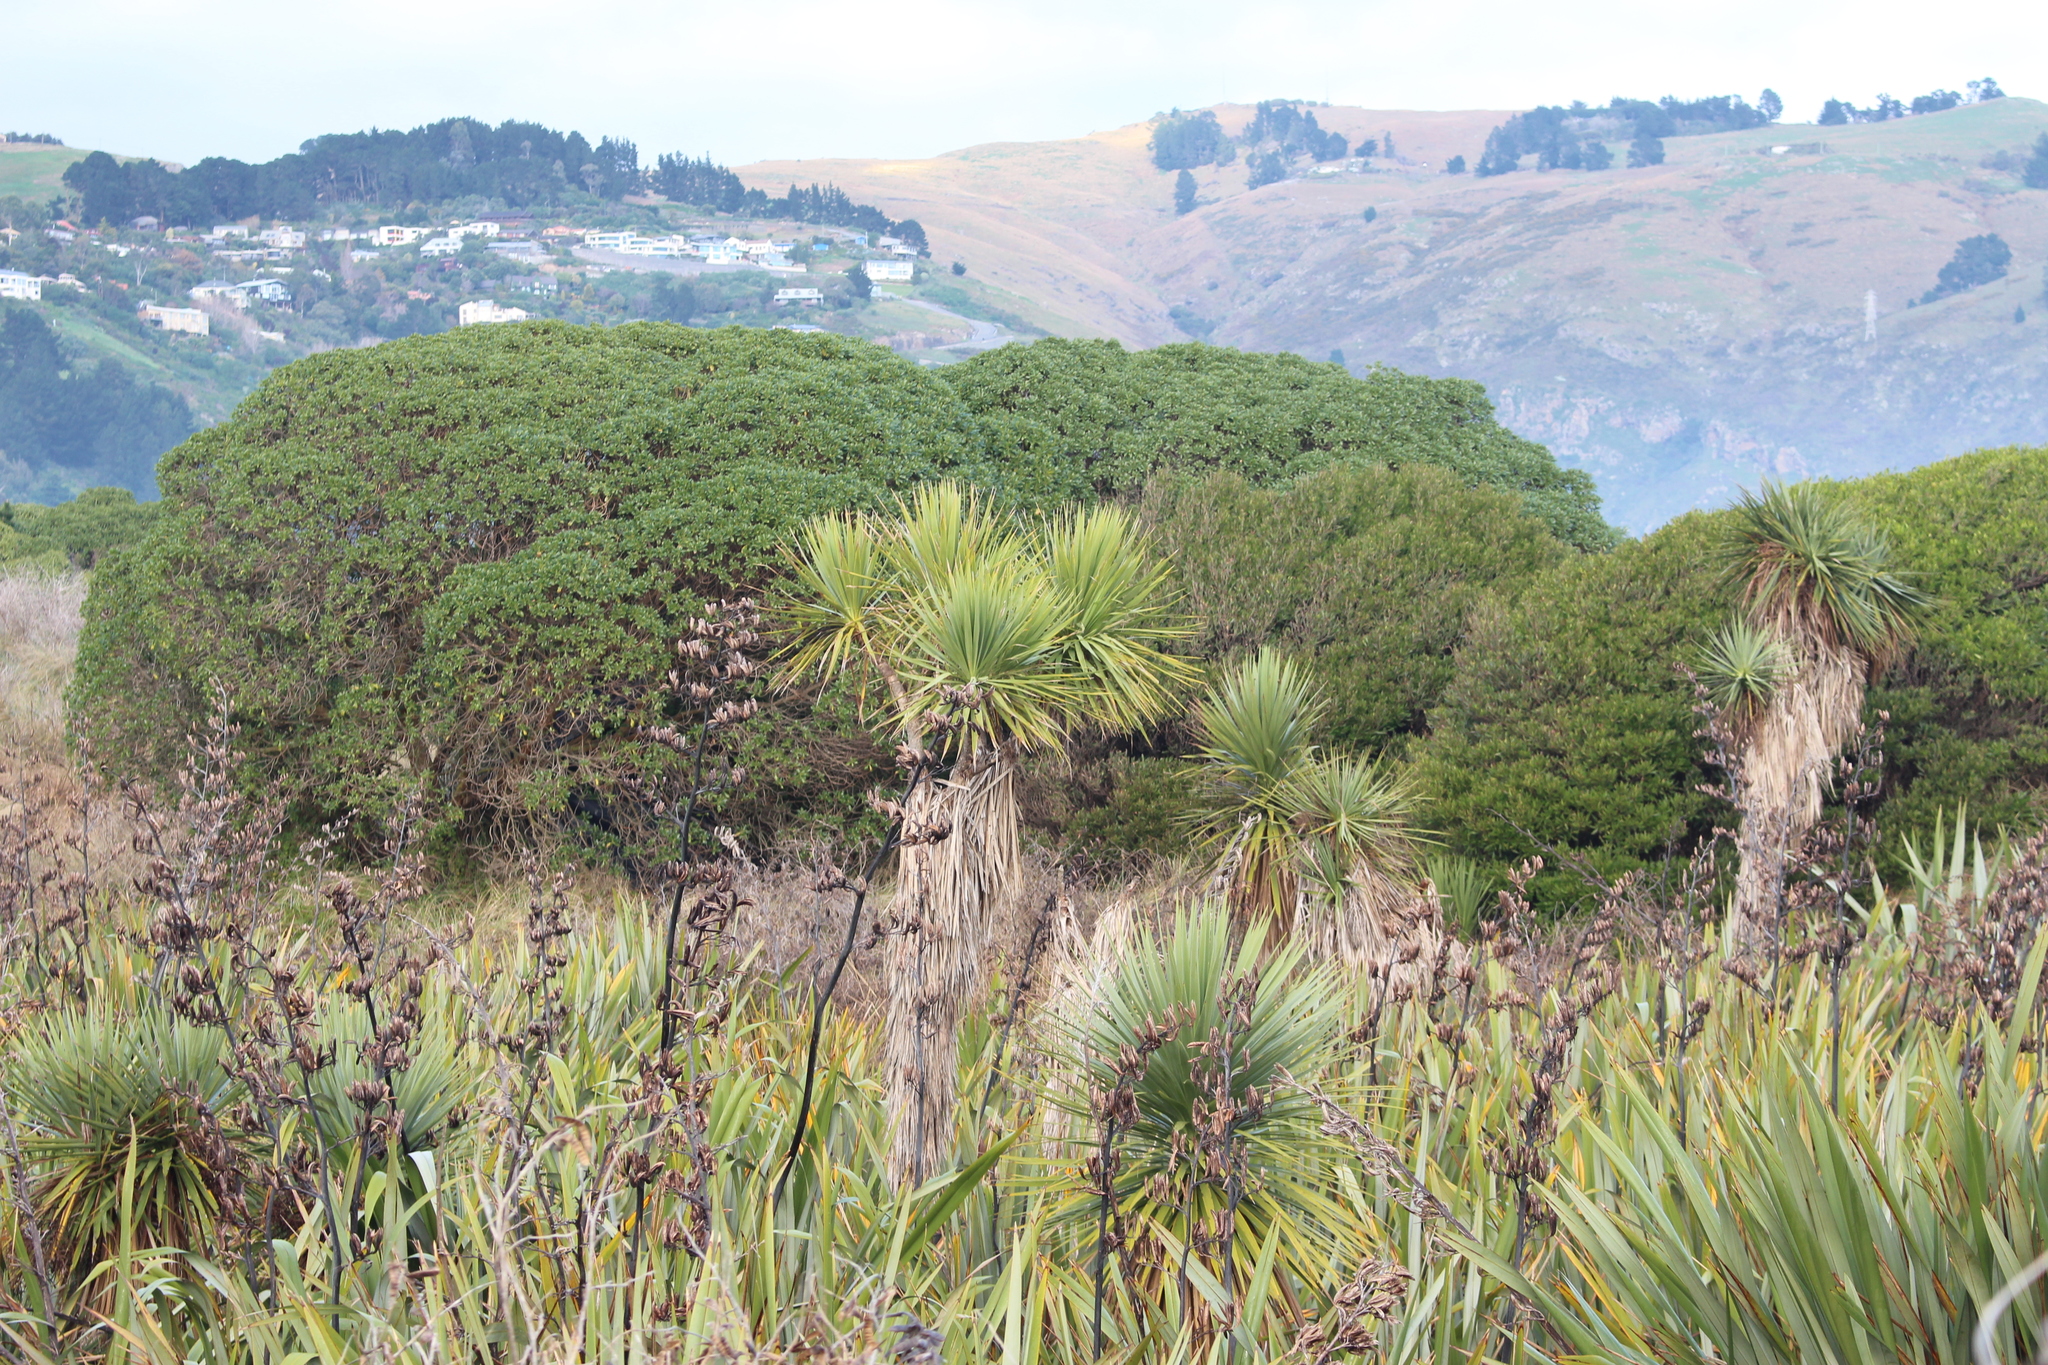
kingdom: Plantae
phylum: Tracheophyta
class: Liliopsida
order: Asparagales
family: Asphodelaceae
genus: Phormium
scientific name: Phormium tenax
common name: New zealand flax
